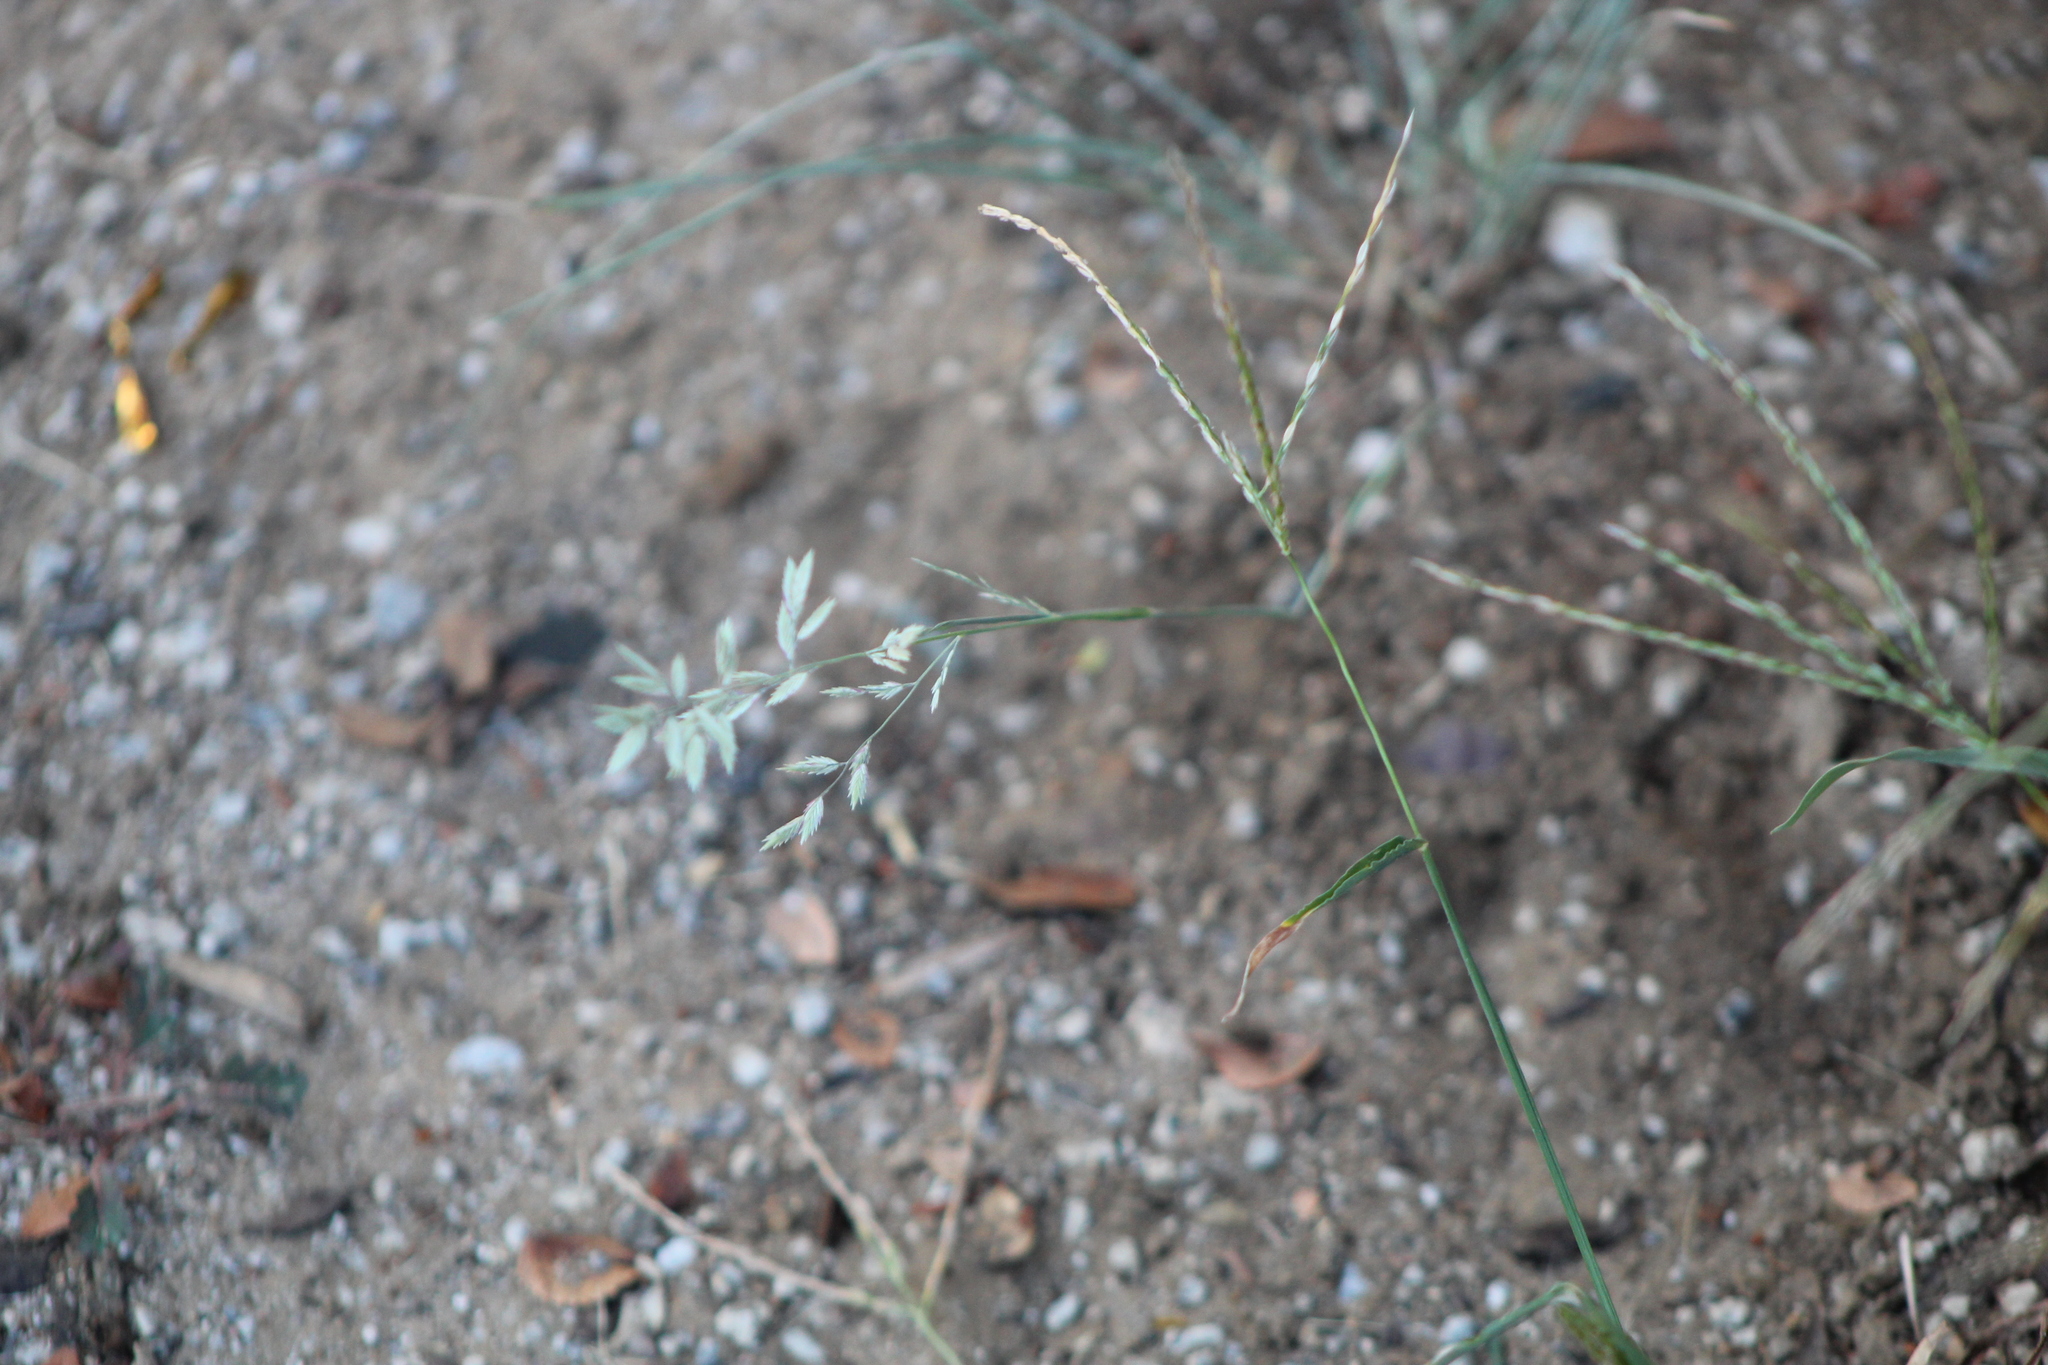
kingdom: Plantae
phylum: Tracheophyta
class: Liliopsida
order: Poales
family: Poaceae
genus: Eragrostis
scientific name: Eragrostis secundiflora
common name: Red love grass
